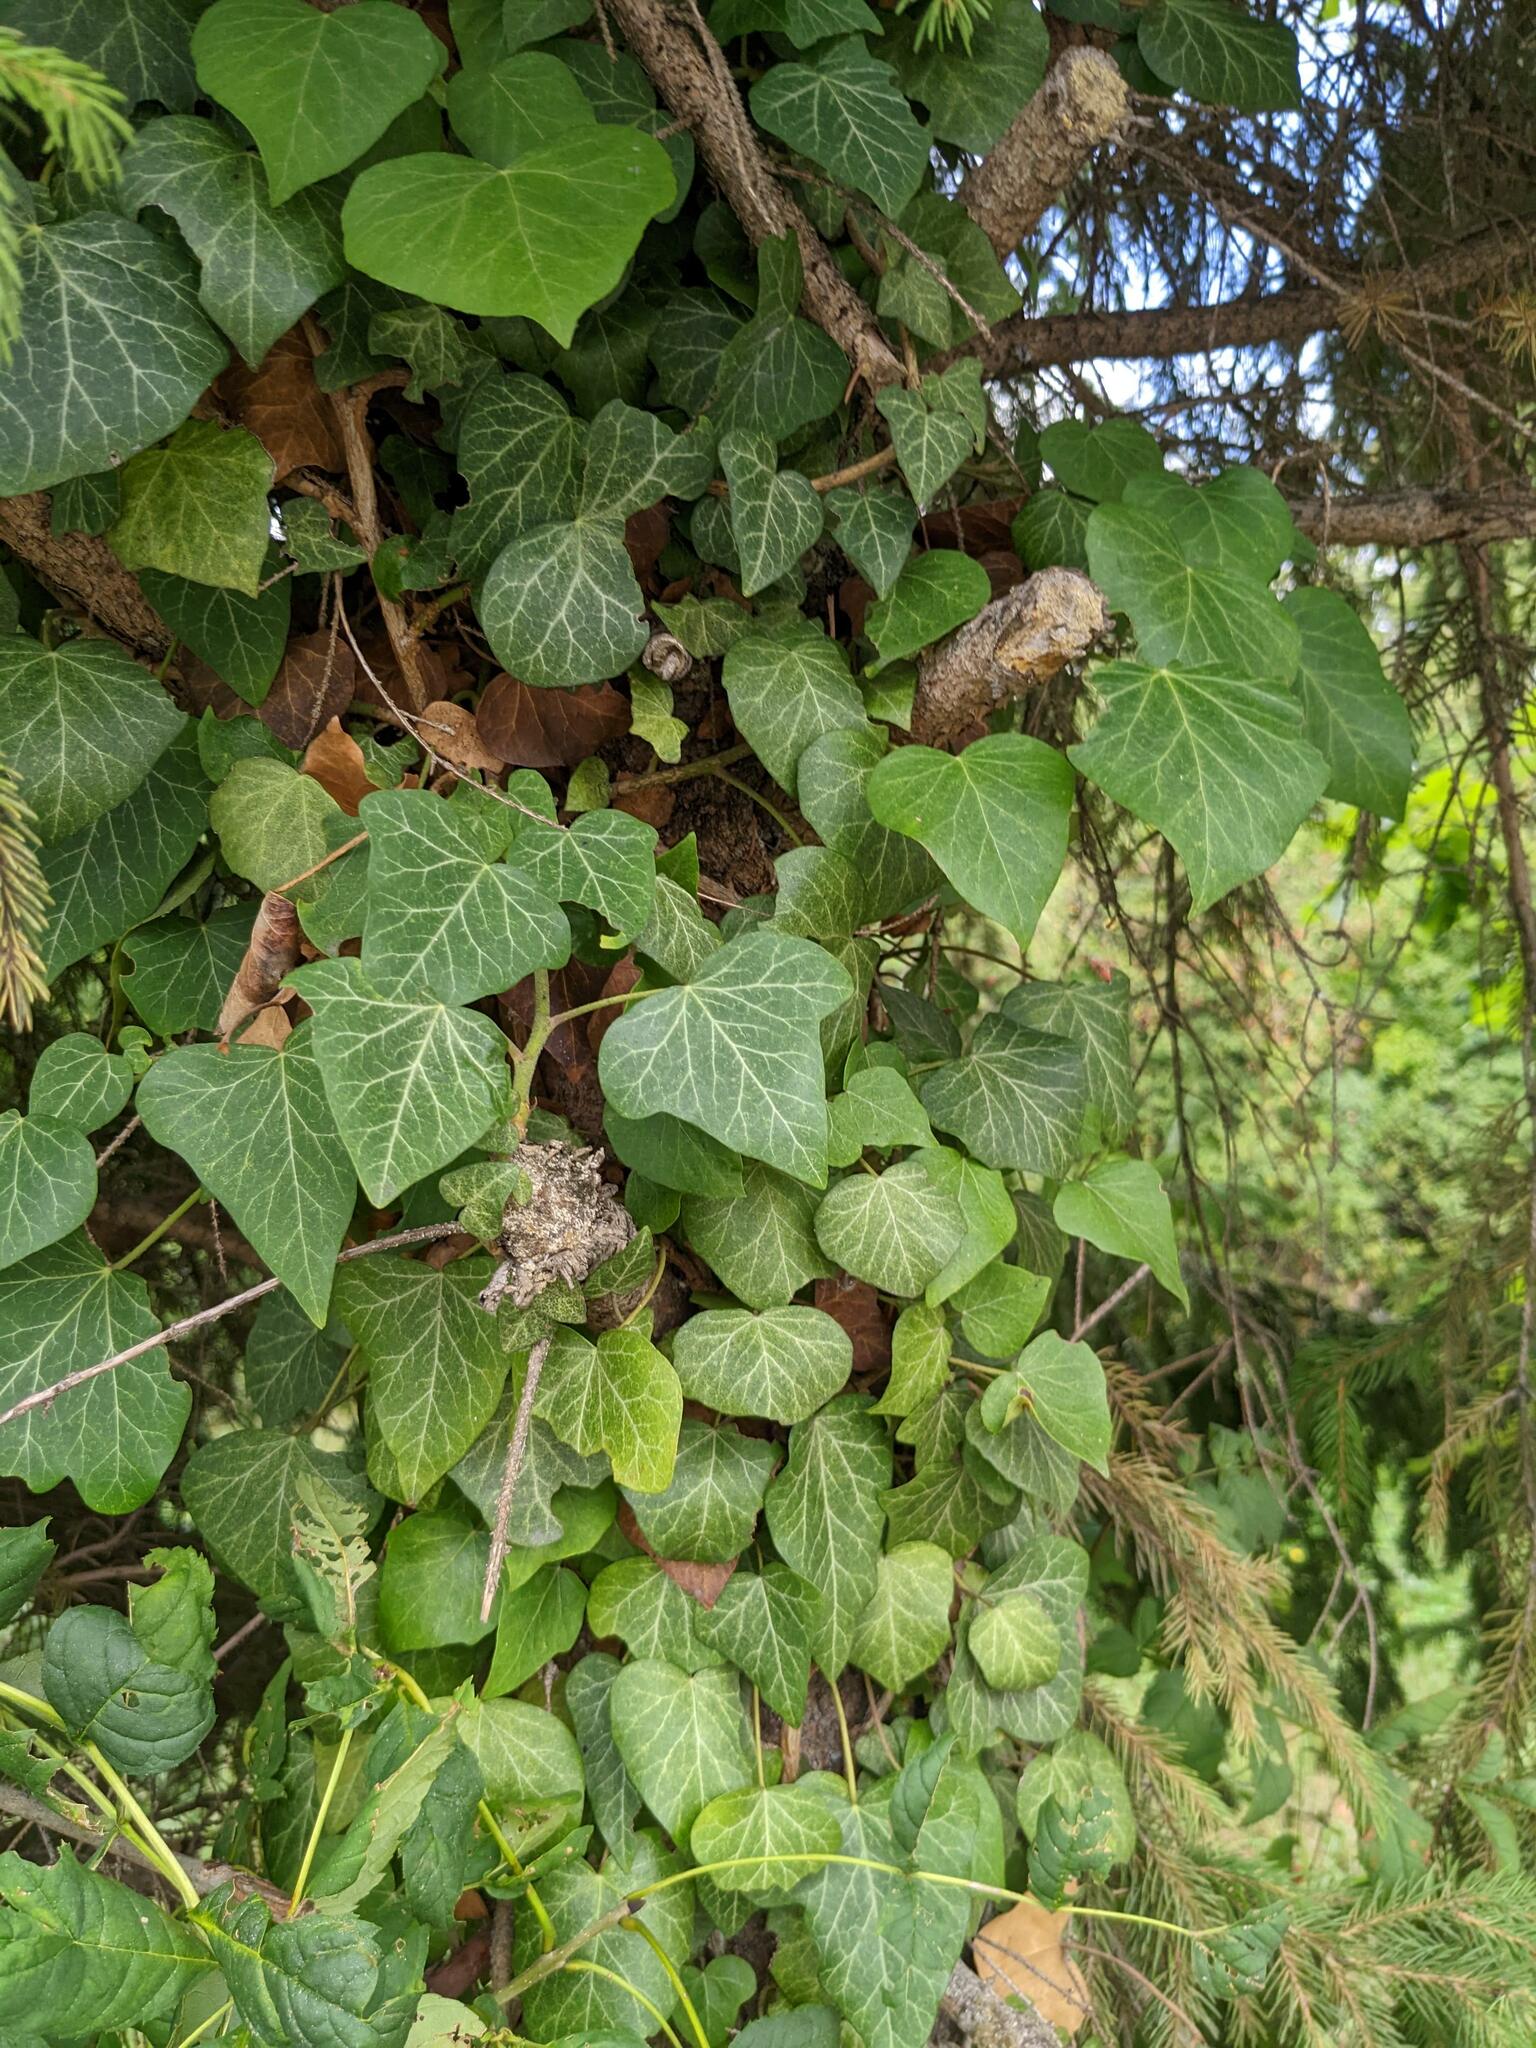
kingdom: Plantae
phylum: Tracheophyta
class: Magnoliopsida
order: Apiales
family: Araliaceae
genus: Hedera
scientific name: Hedera helix
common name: Ivy
